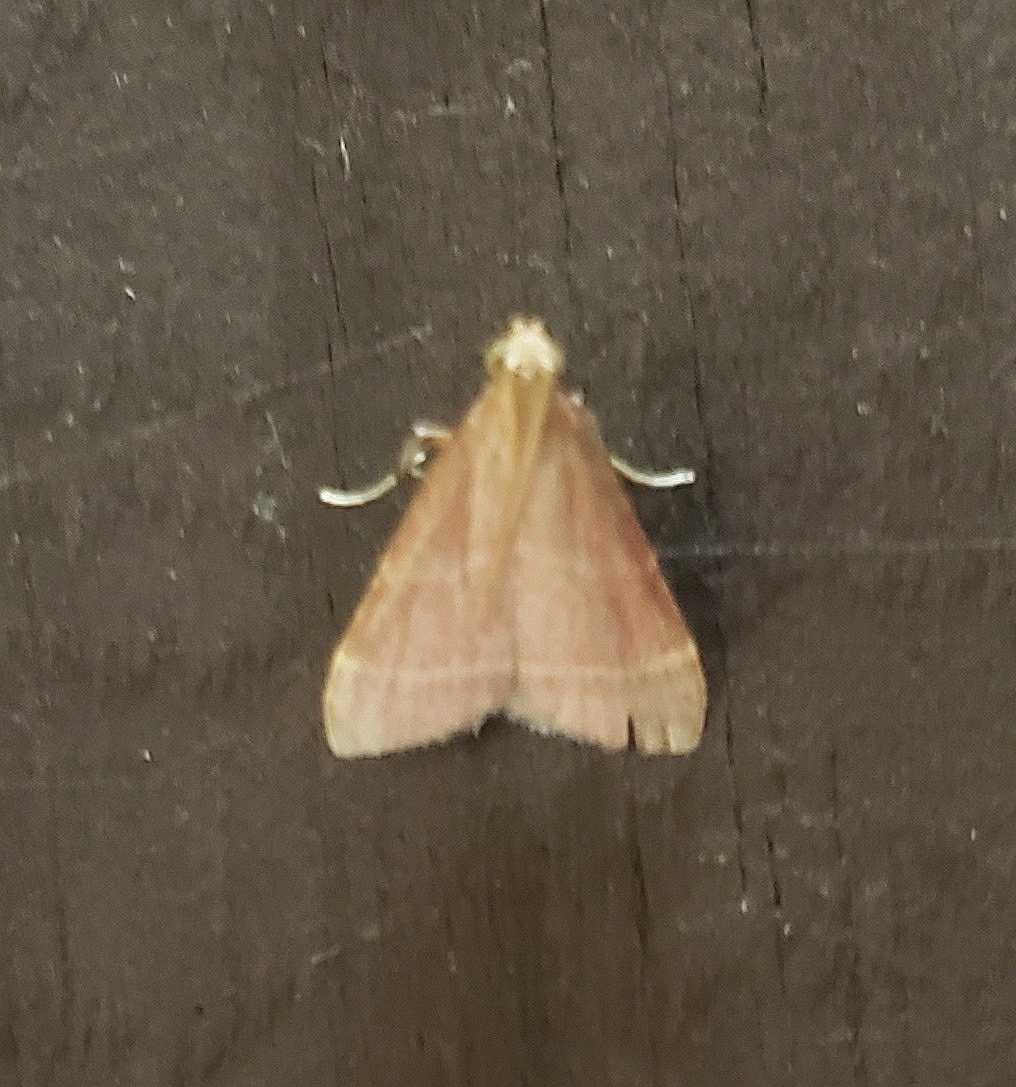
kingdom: Animalia
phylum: Arthropoda
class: Insecta
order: Lepidoptera
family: Pyralidae
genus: Arta
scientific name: Arta statalis
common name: Posturing arta moth
